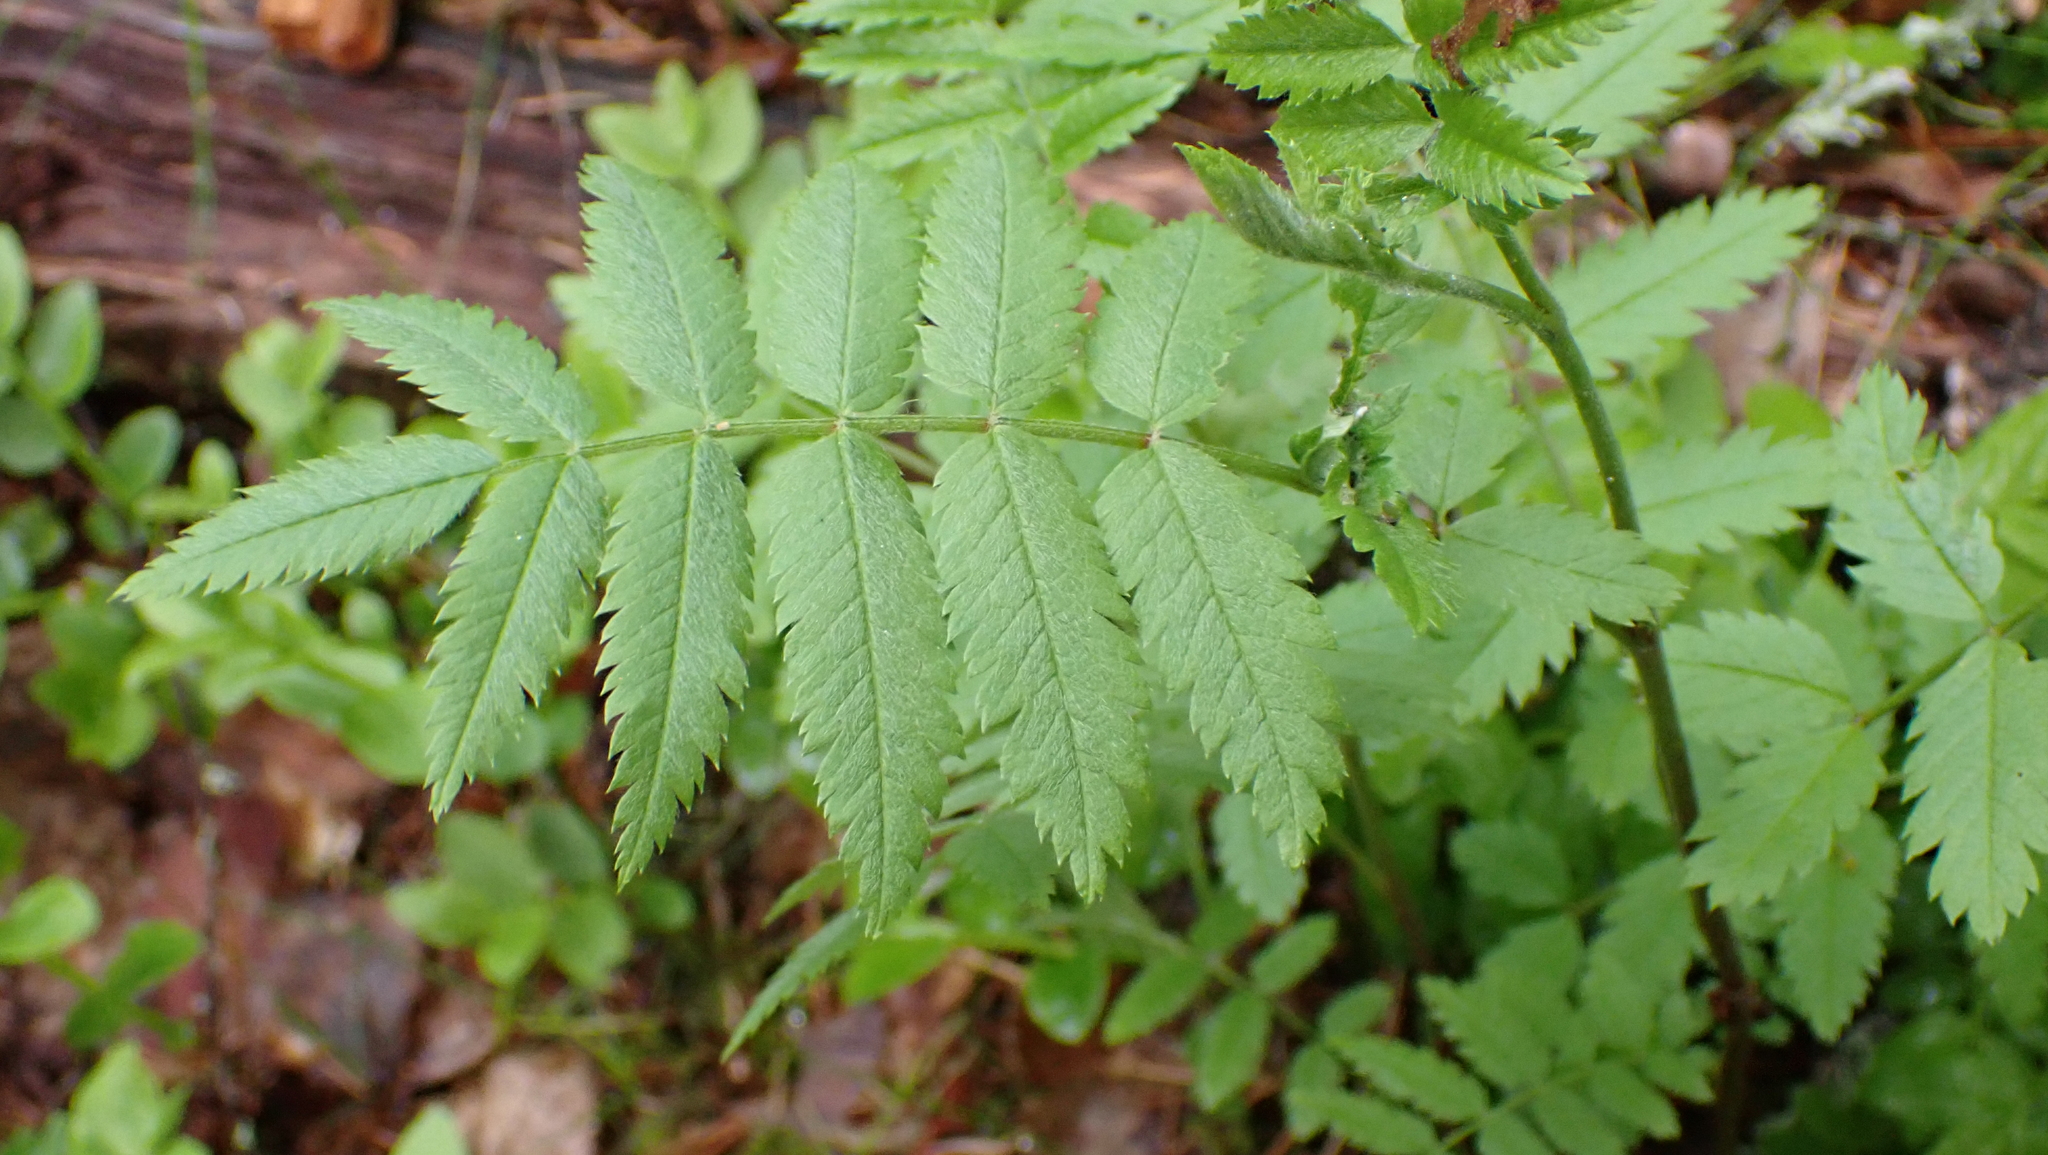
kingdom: Plantae
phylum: Tracheophyta
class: Magnoliopsida
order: Rosales
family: Rosaceae
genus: Sorbus
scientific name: Sorbus aucuparia
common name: Rowan
